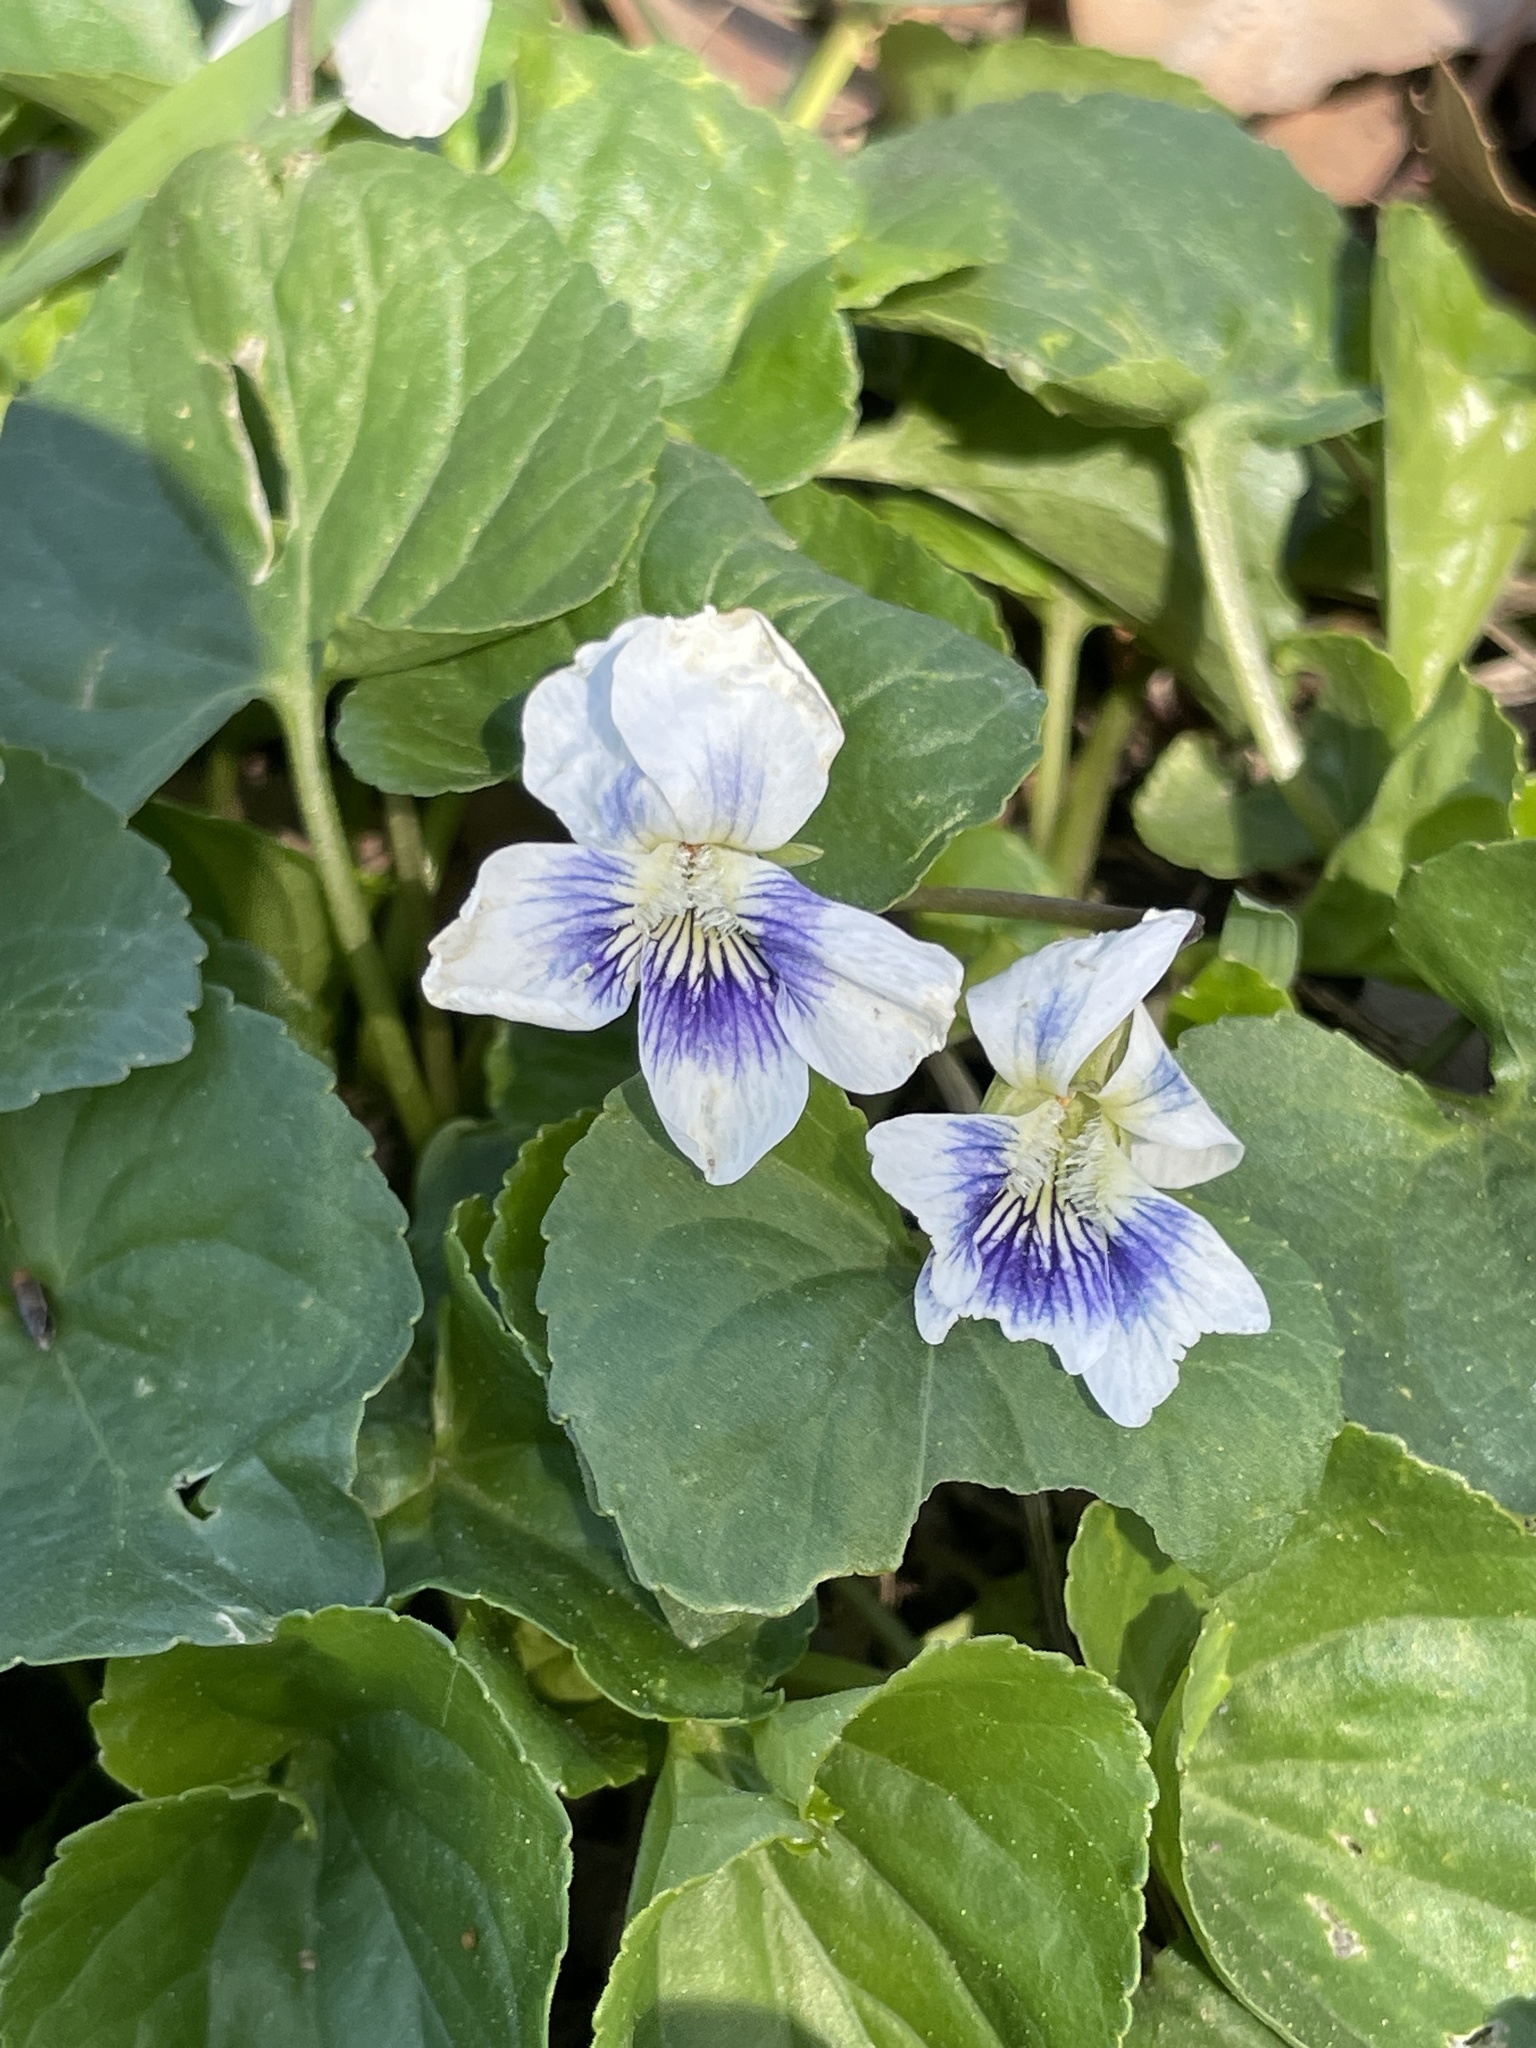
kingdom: Plantae
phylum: Tracheophyta
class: Magnoliopsida
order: Malpighiales
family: Violaceae
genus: Viola
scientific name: Viola sororia
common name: Dooryard violet
